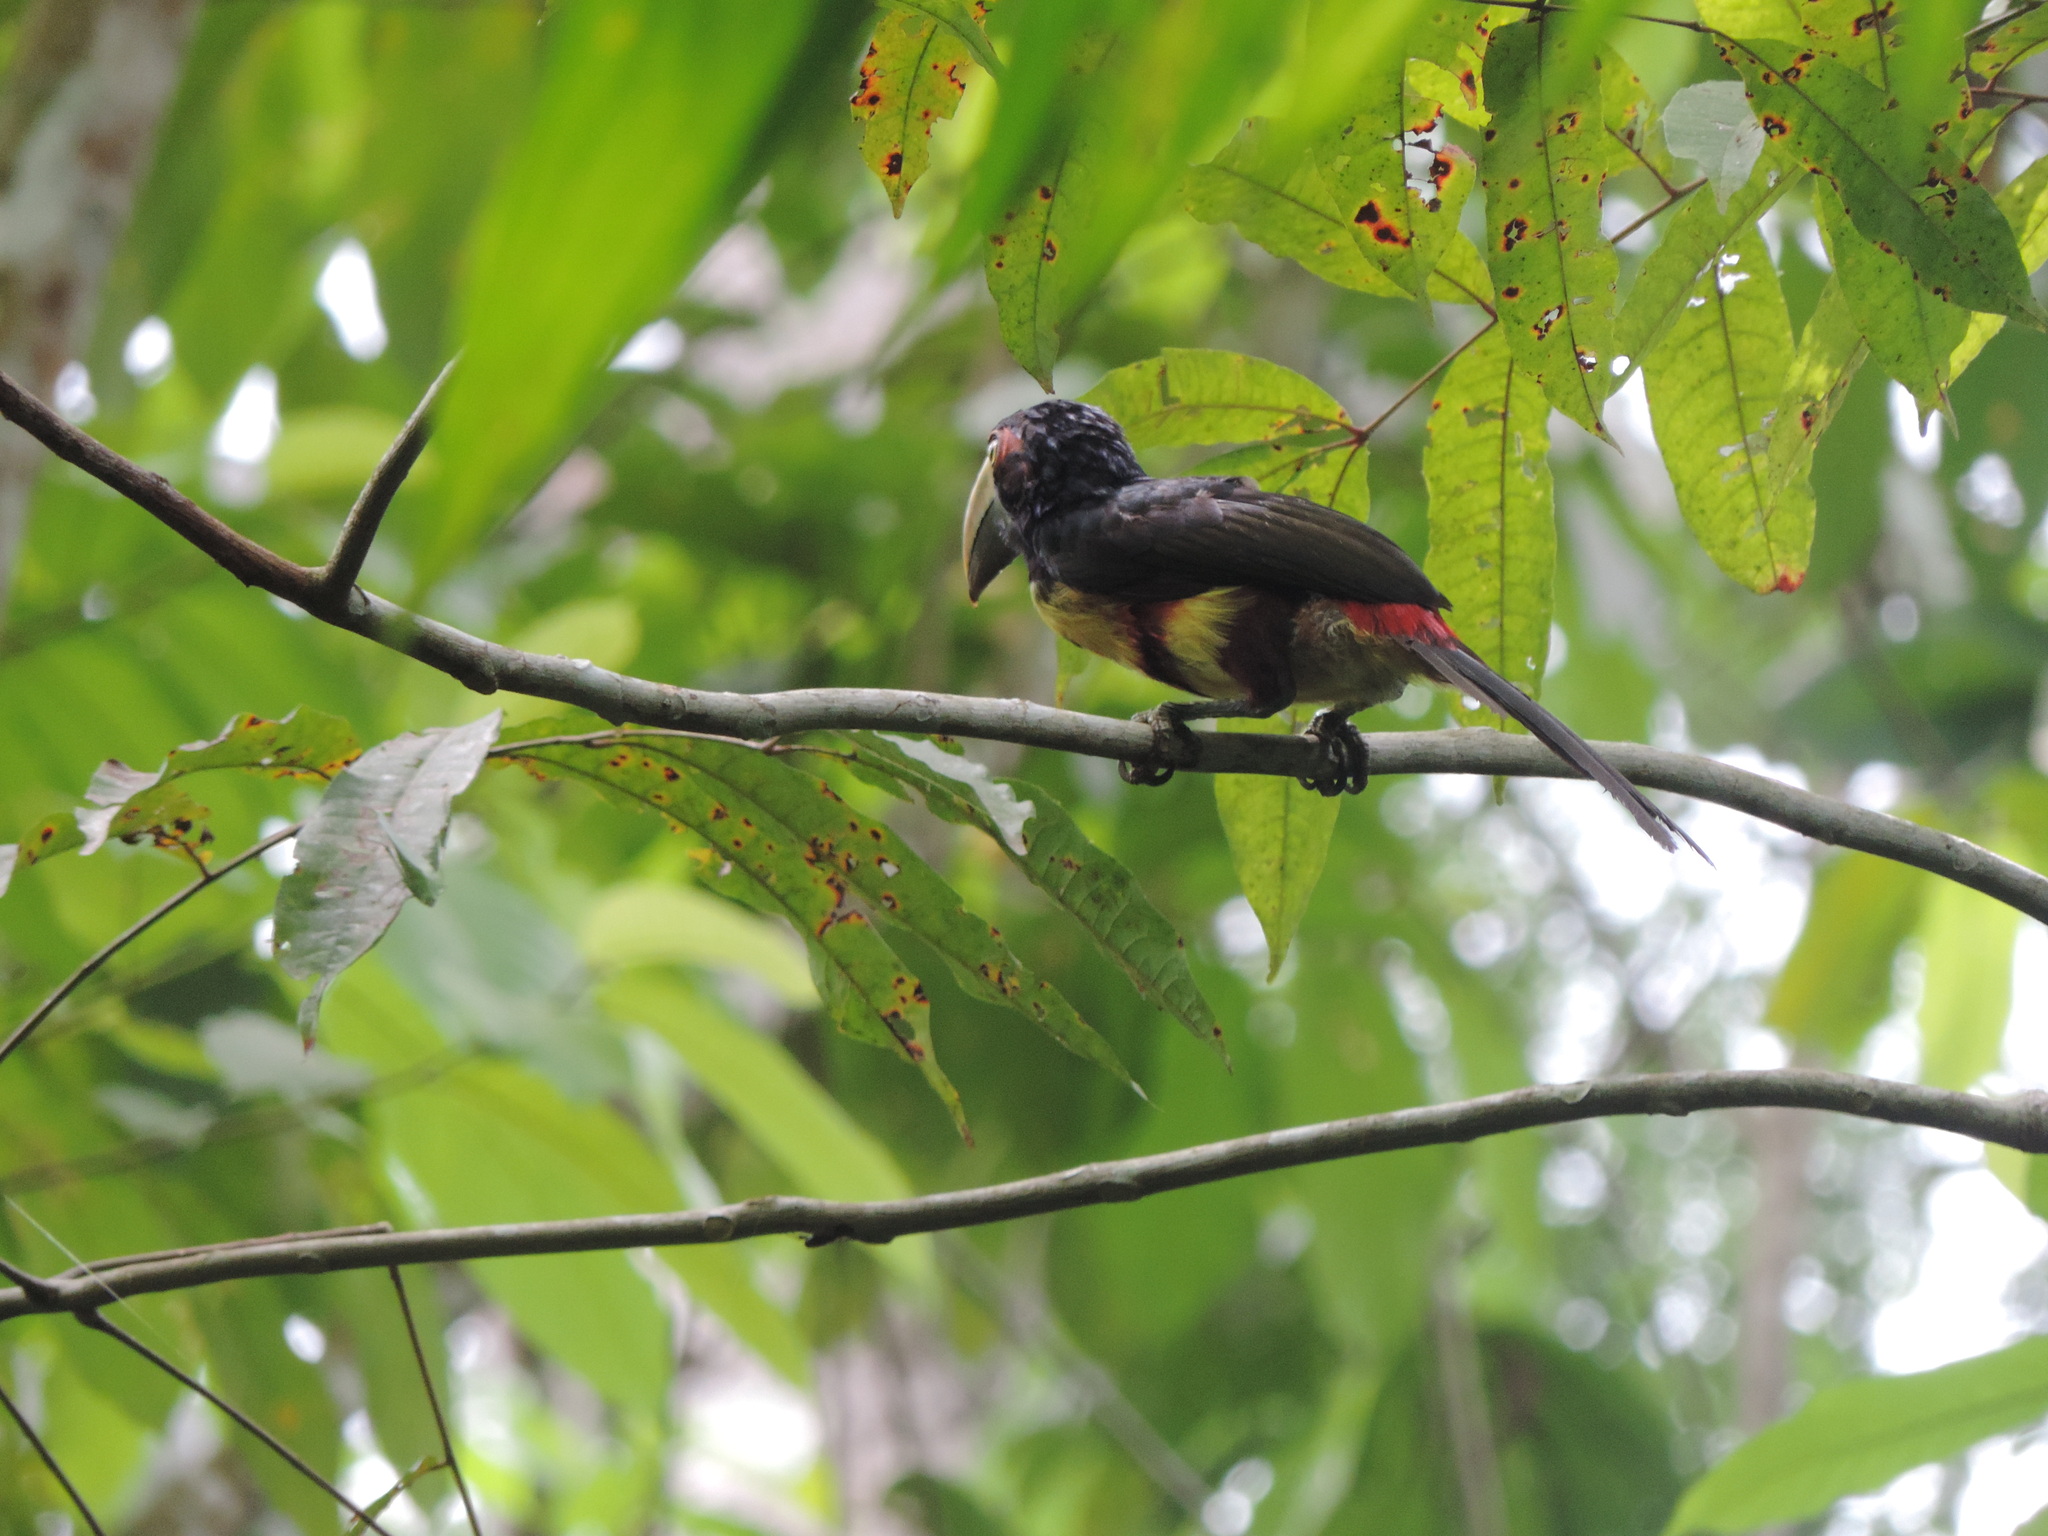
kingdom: Animalia
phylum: Chordata
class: Aves
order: Piciformes
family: Ramphastidae
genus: Pteroglossus
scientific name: Pteroglossus torquatus
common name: Collared aracari
